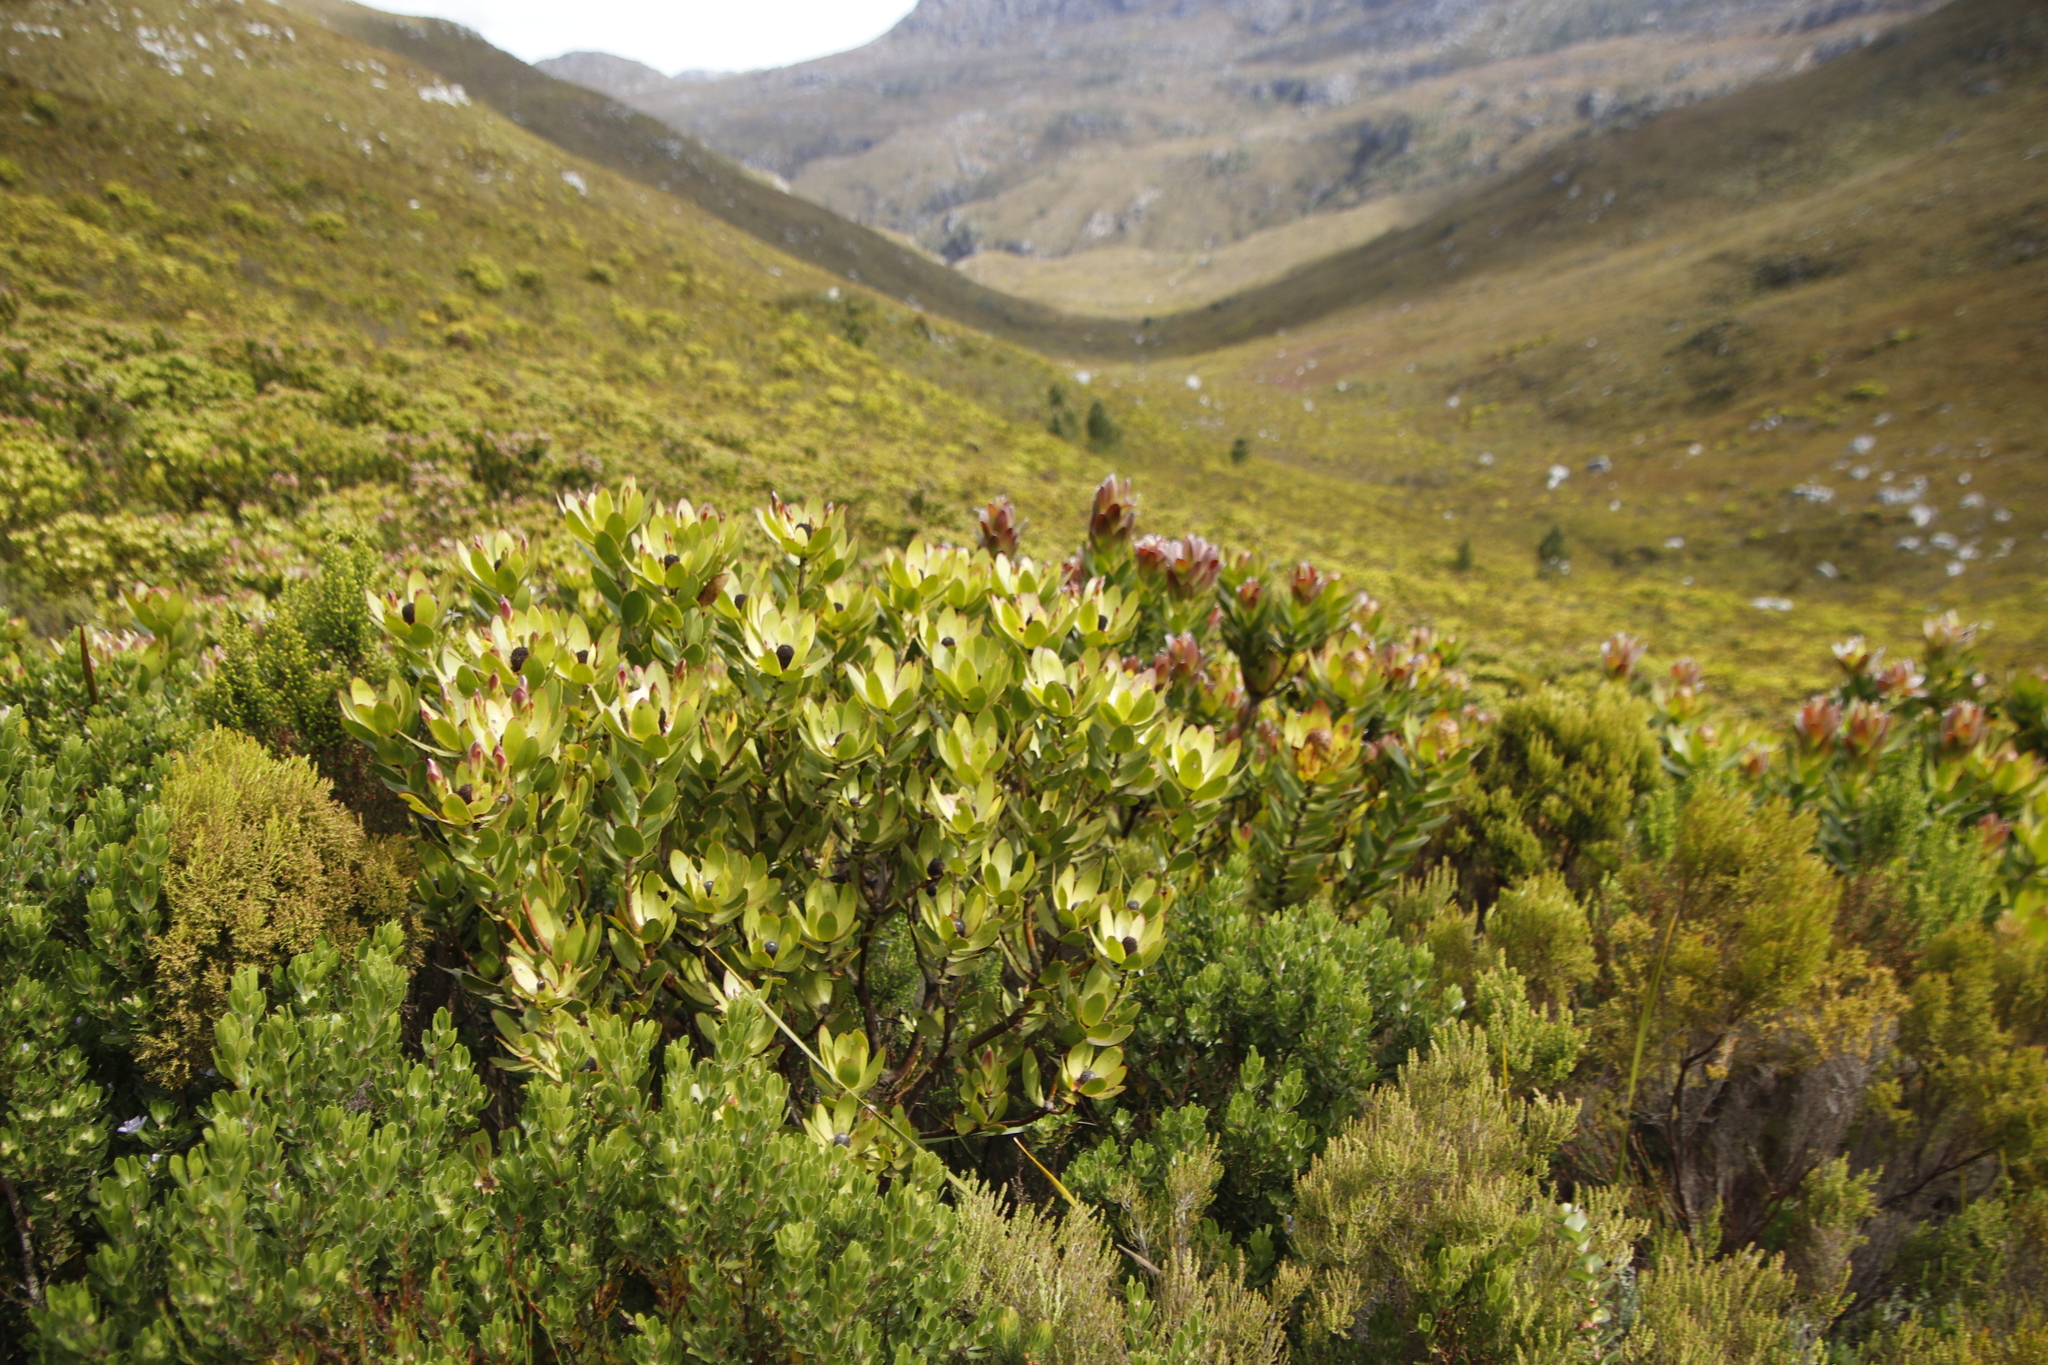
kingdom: Plantae
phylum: Tracheophyta
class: Magnoliopsida
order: Proteales
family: Proteaceae
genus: Leucadendron
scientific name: Leucadendron gandogeri
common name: Broad-leaf conebush
